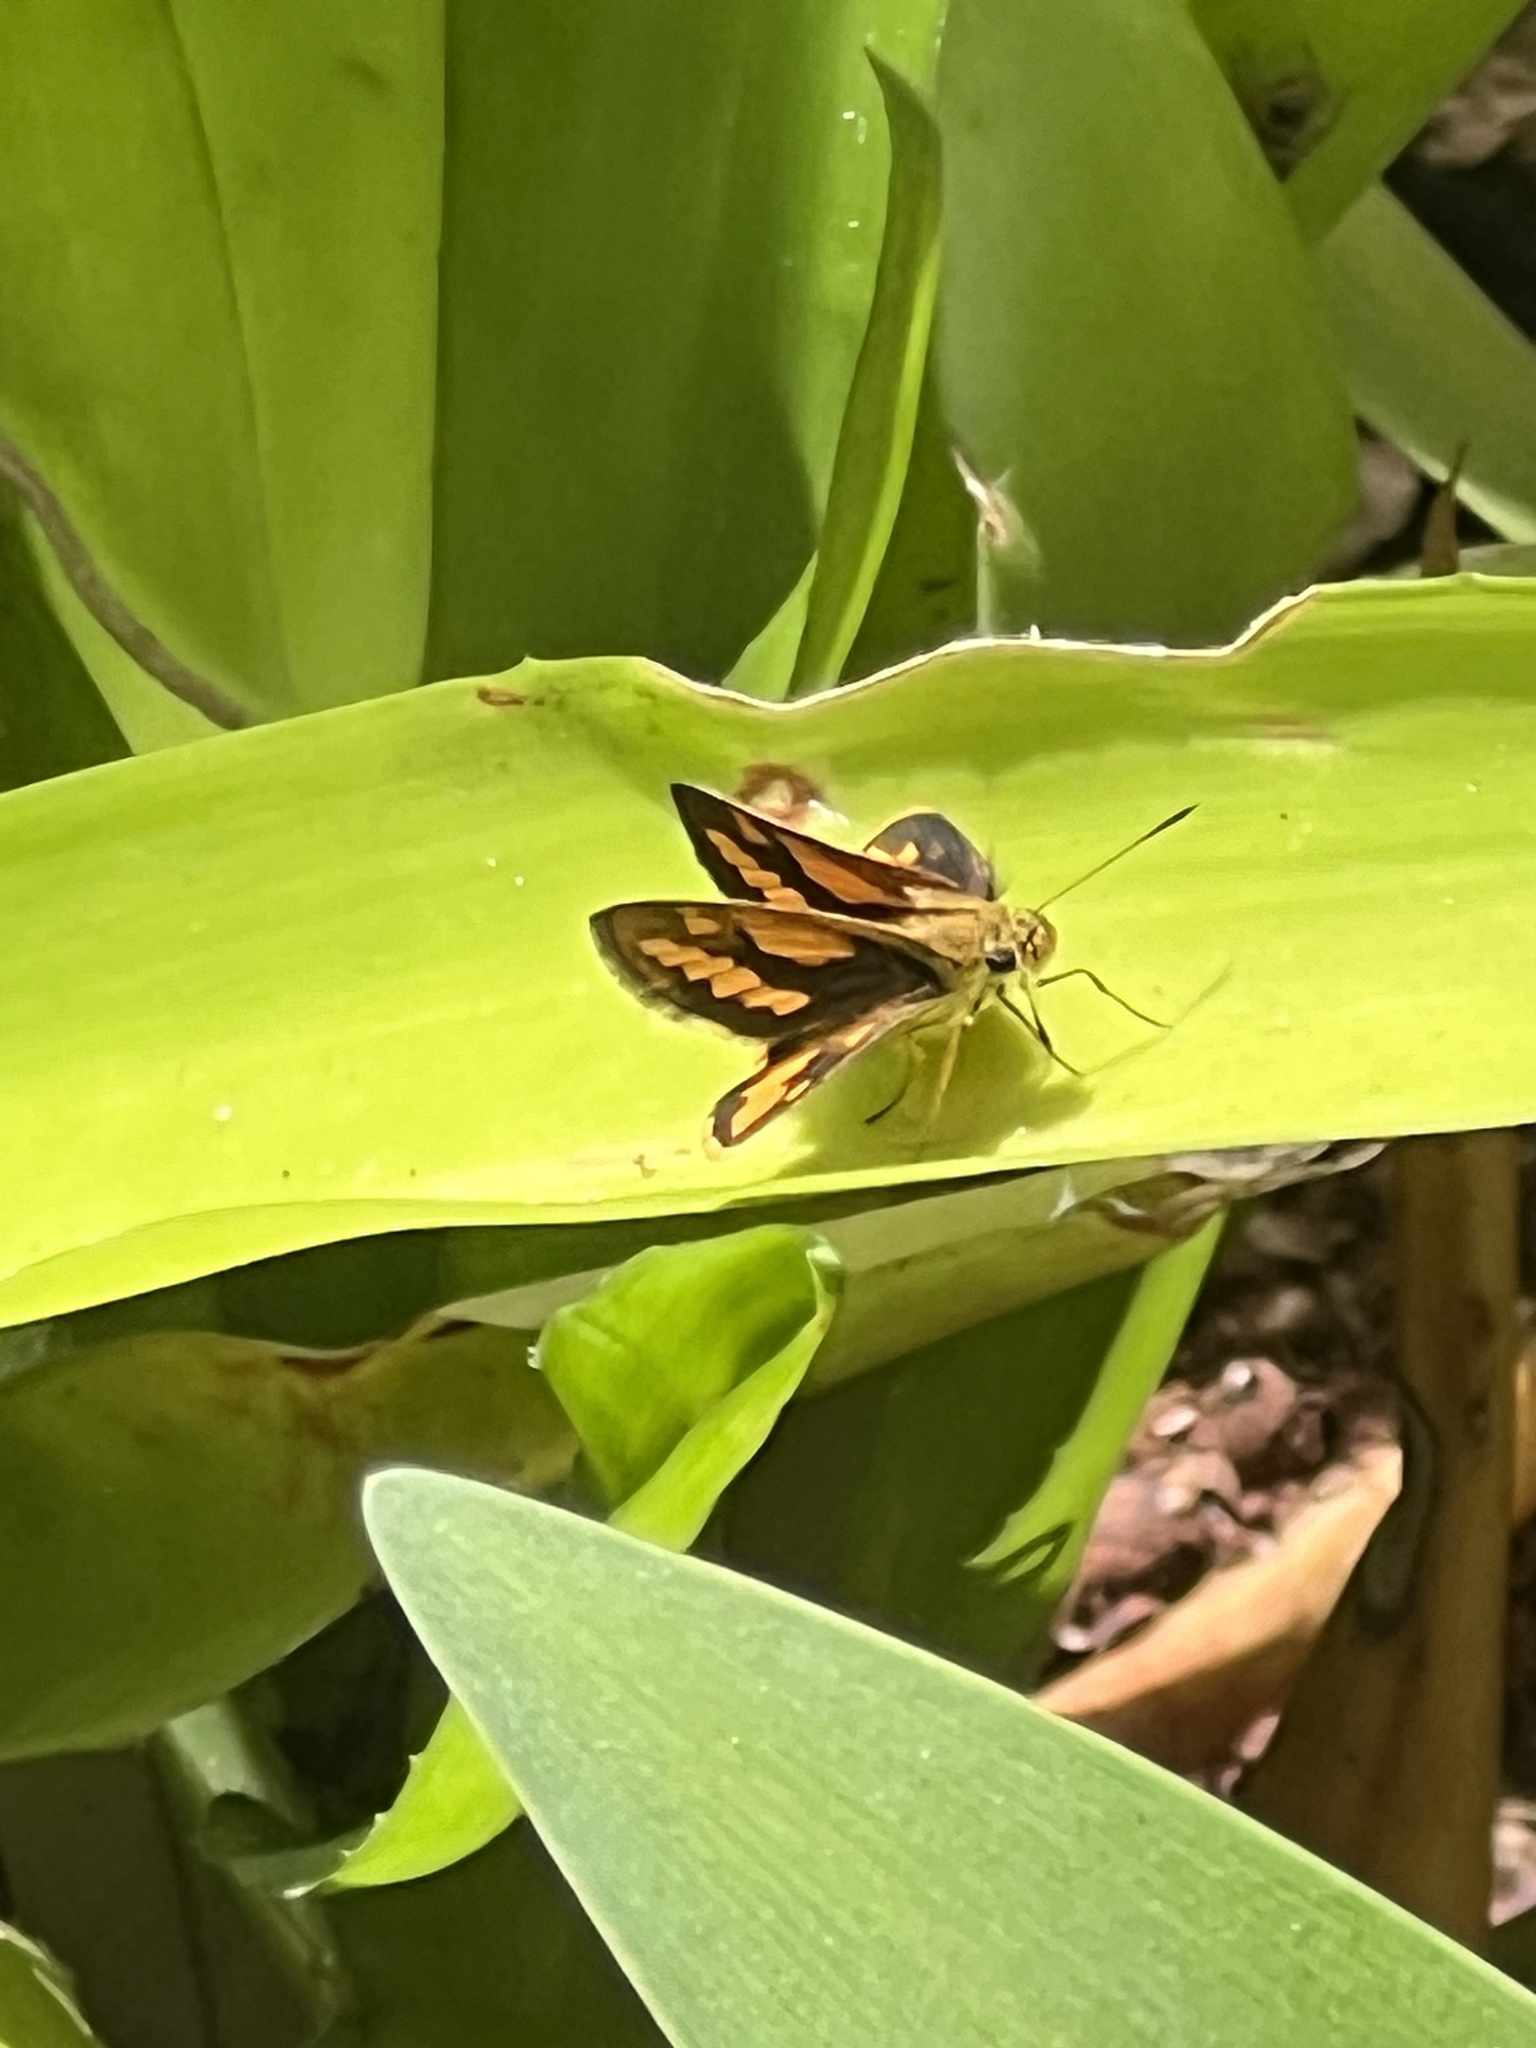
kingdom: Animalia
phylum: Arthropoda
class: Insecta
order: Lepidoptera
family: Hesperiidae
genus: Suniana
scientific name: Suniana sunias
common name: Wide-brand grass-dart
